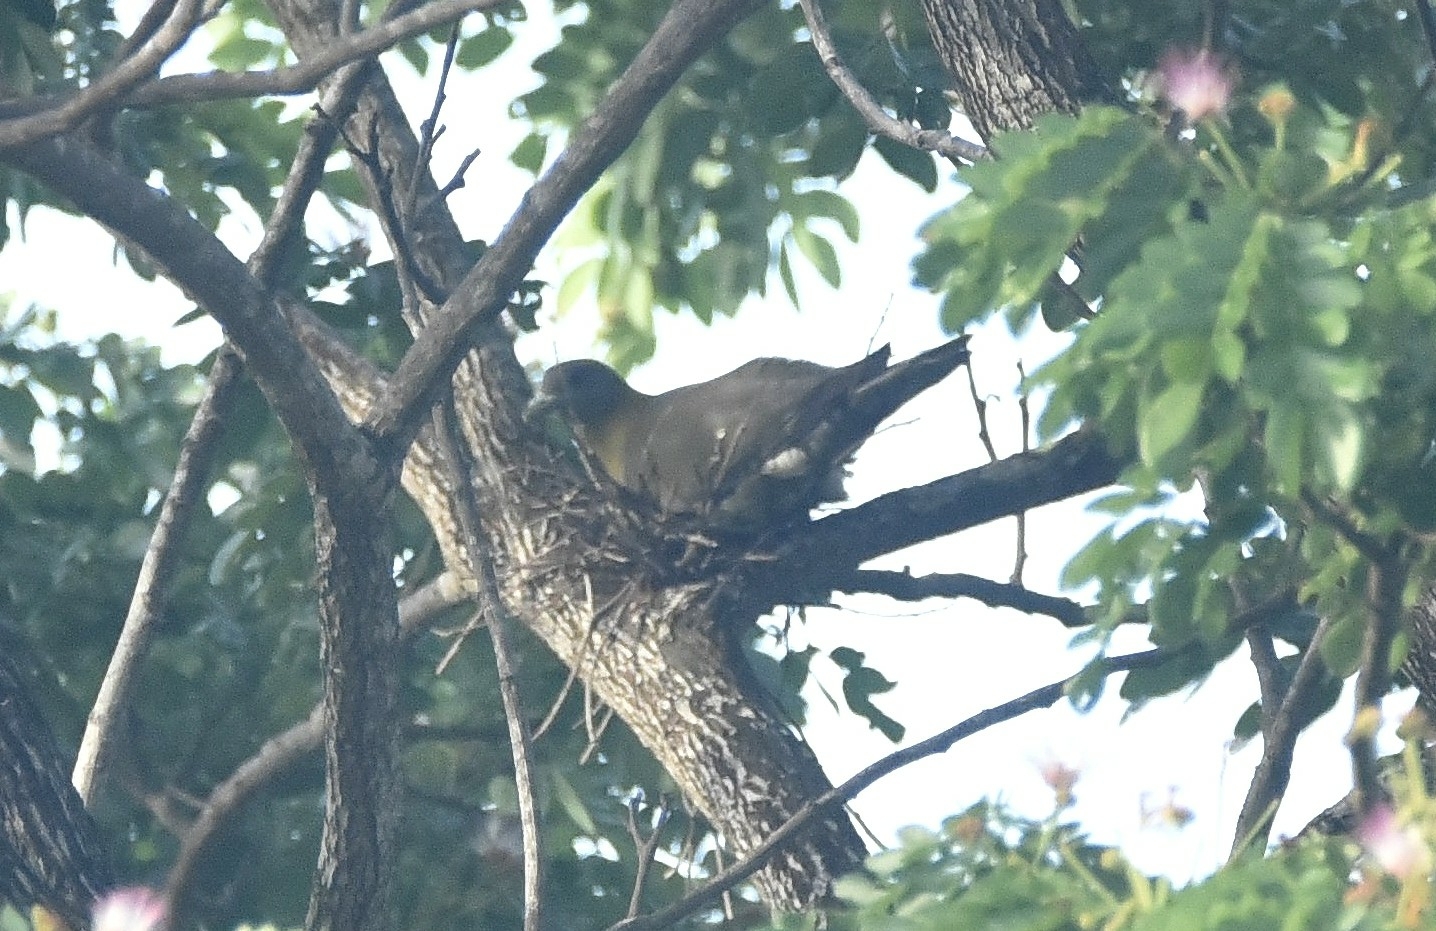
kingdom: Animalia
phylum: Chordata
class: Aves
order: Columbiformes
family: Columbidae
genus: Treron
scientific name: Treron phoenicopterus
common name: Yellow-footed green pigeon
